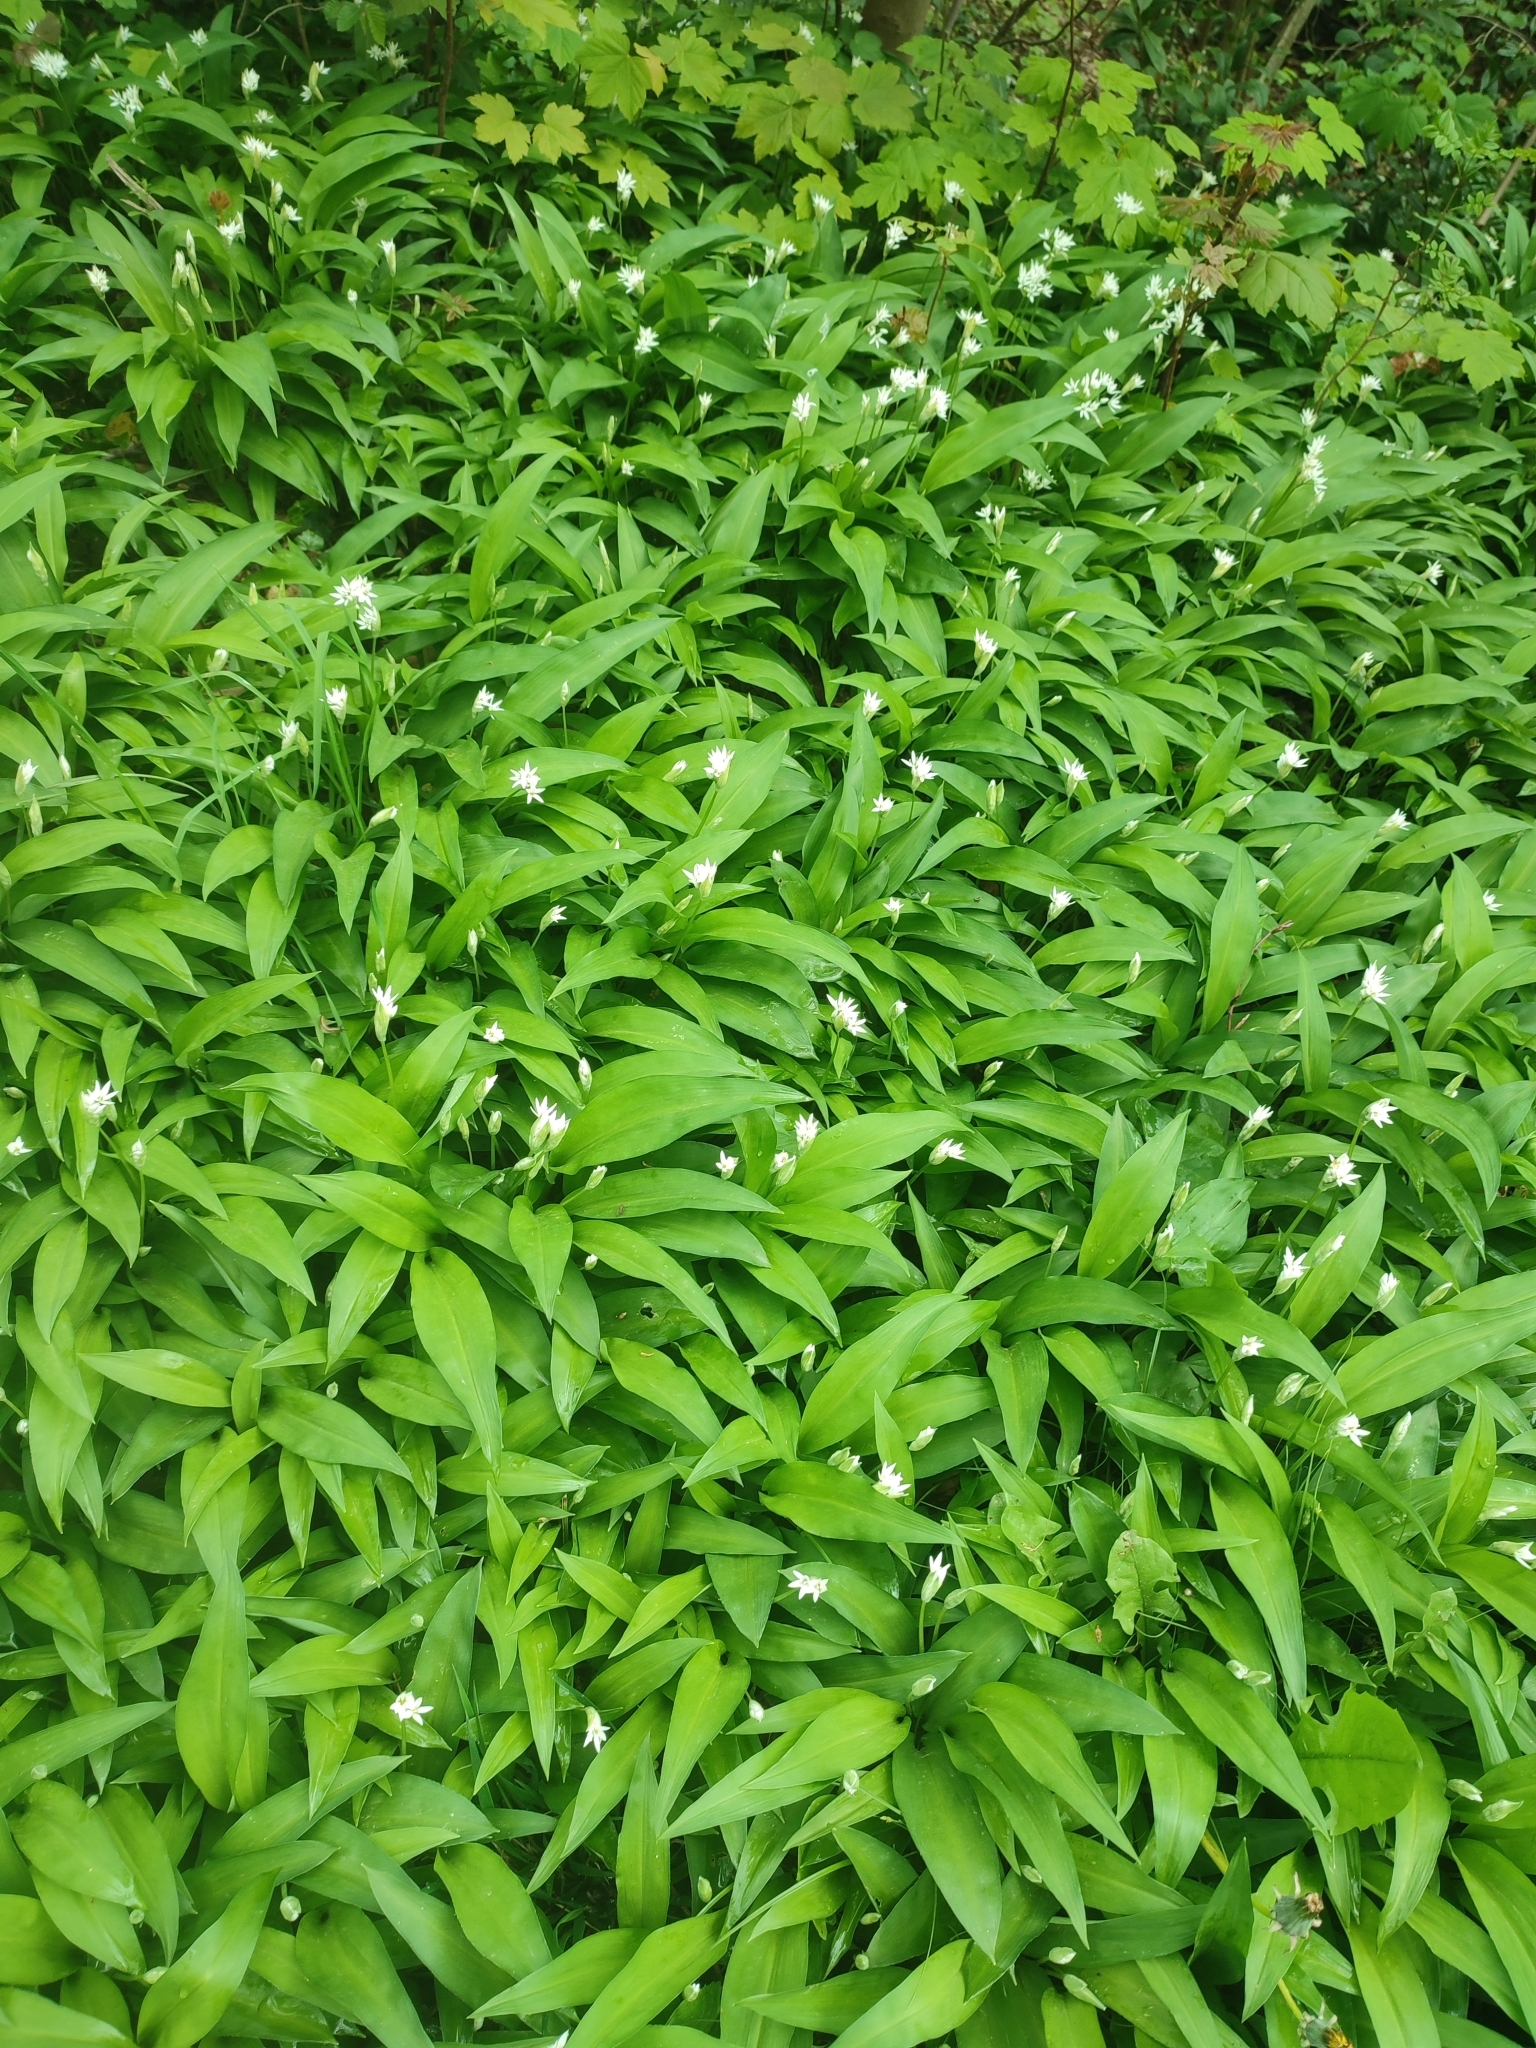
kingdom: Plantae
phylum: Tracheophyta
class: Liliopsida
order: Asparagales
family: Amaryllidaceae
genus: Allium
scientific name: Allium ursinum
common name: Ramsons
